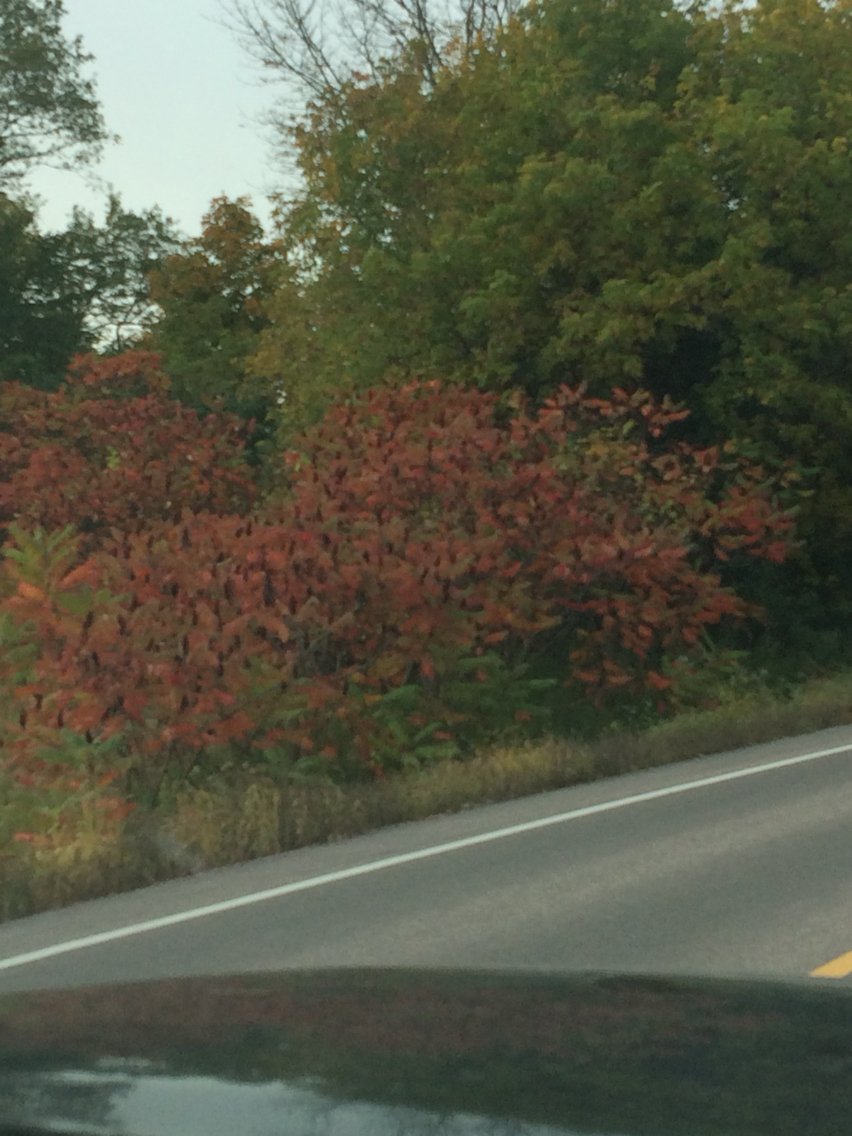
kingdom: Plantae
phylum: Tracheophyta
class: Magnoliopsida
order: Sapindales
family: Anacardiaceae
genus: Rhus
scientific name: Rhus typhina
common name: Staghorn sumac
